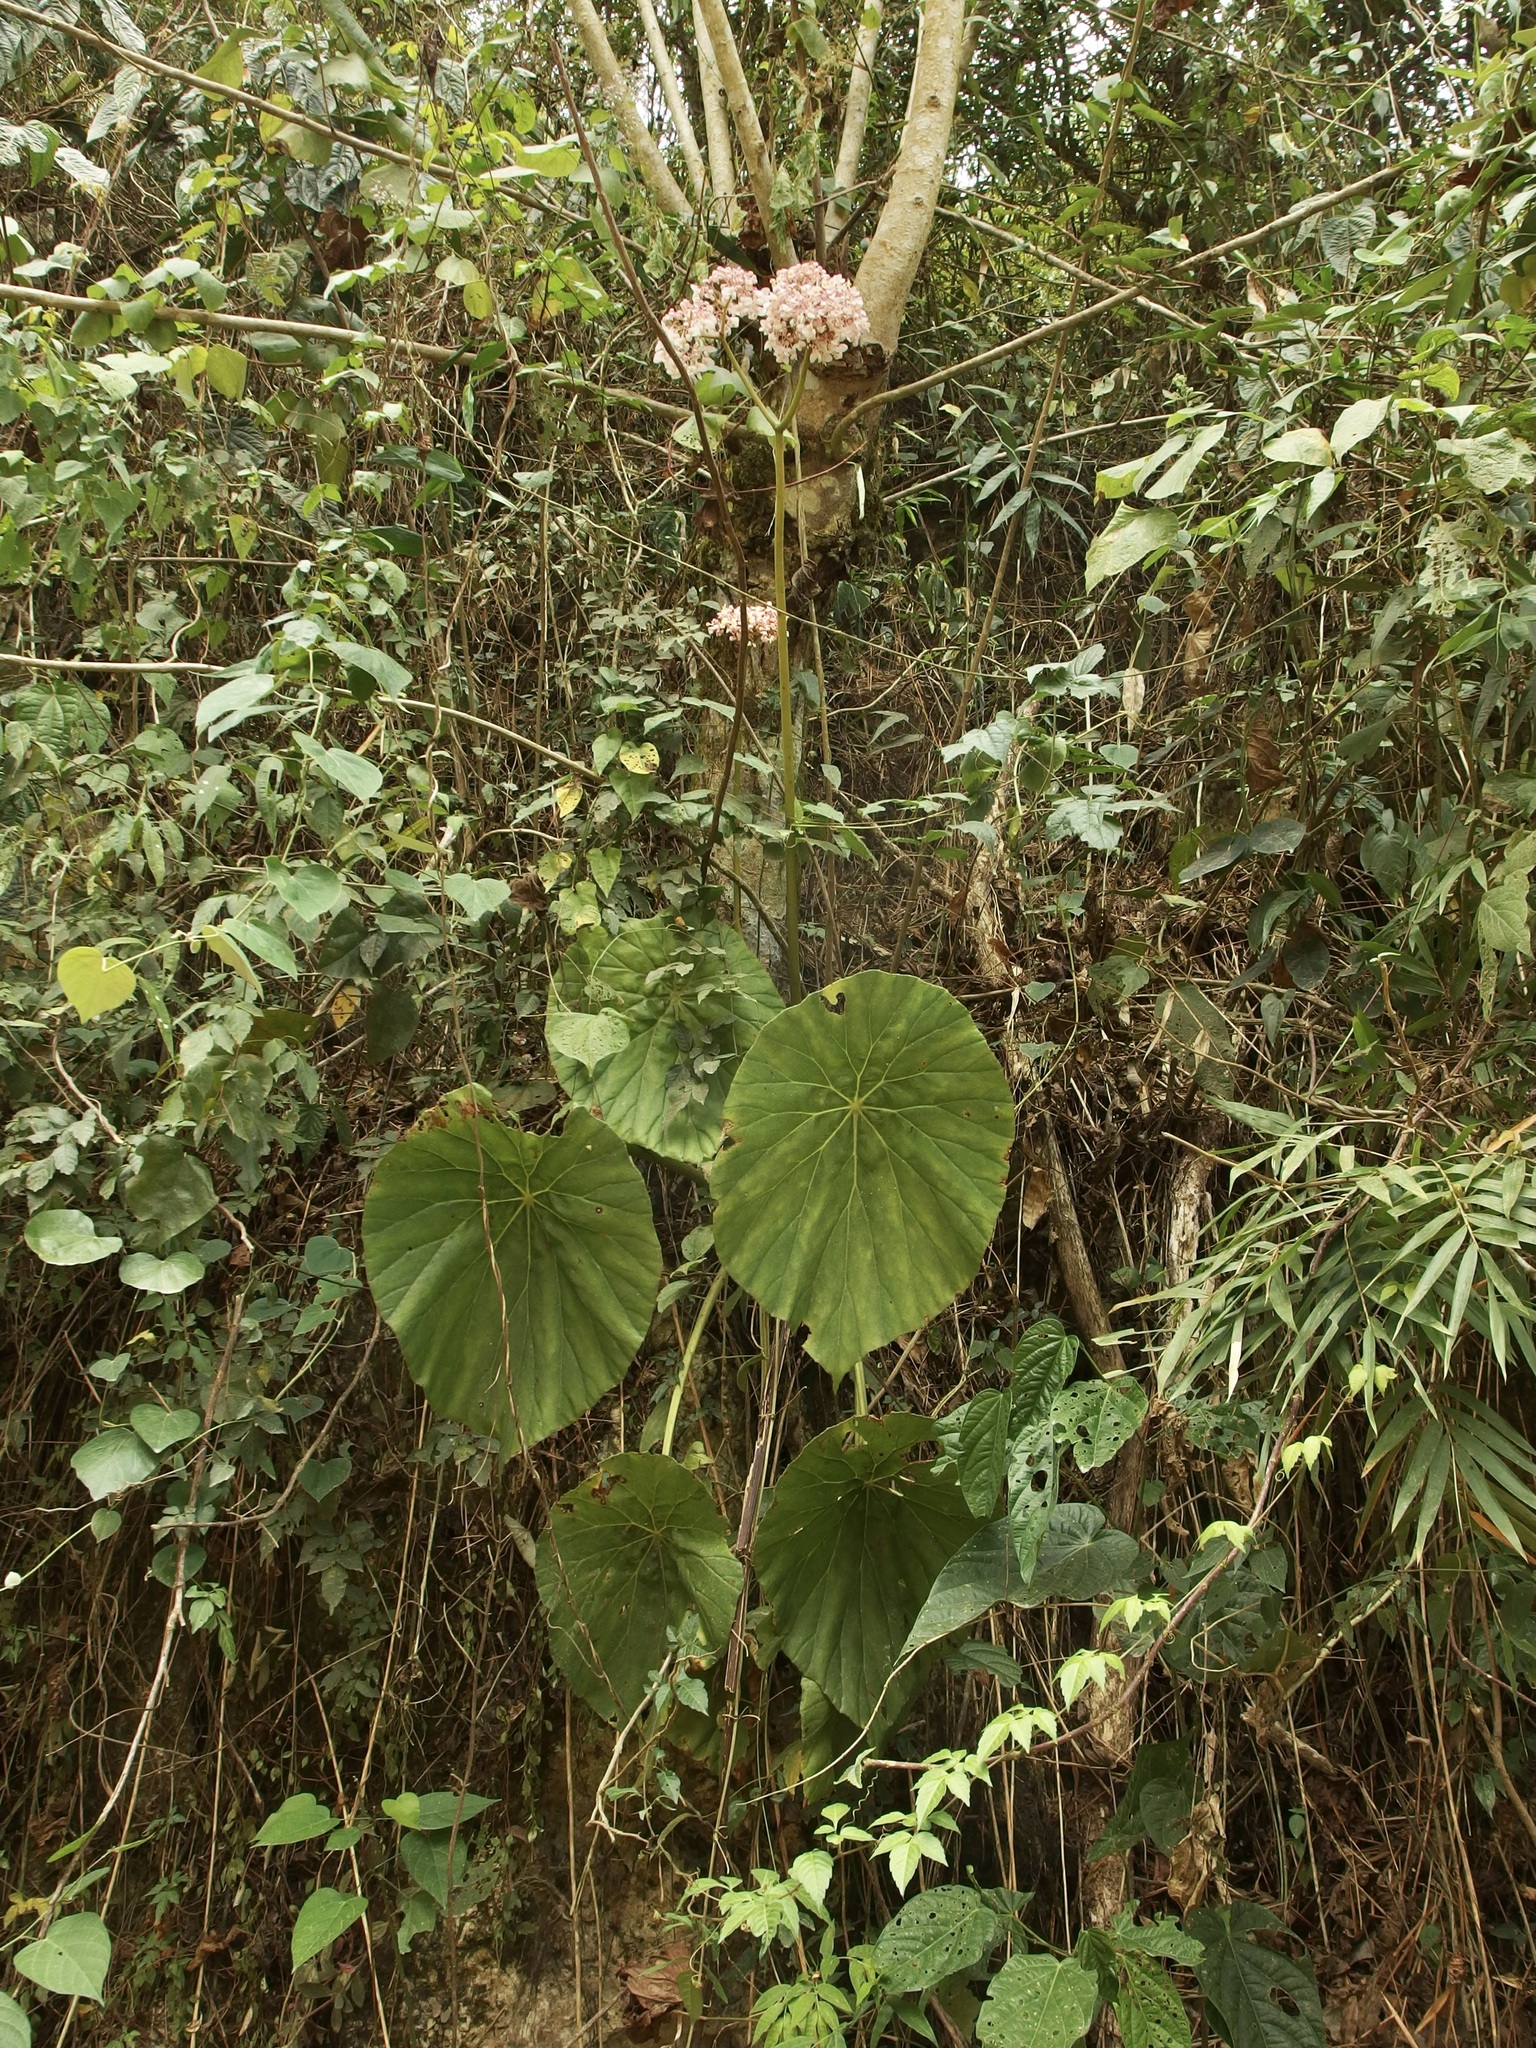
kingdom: Plantae
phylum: Tracheophyta
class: Magnoliopsida
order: Cucurbitales
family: Begoniaceae
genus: Begonia
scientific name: Begonia pinetorum
